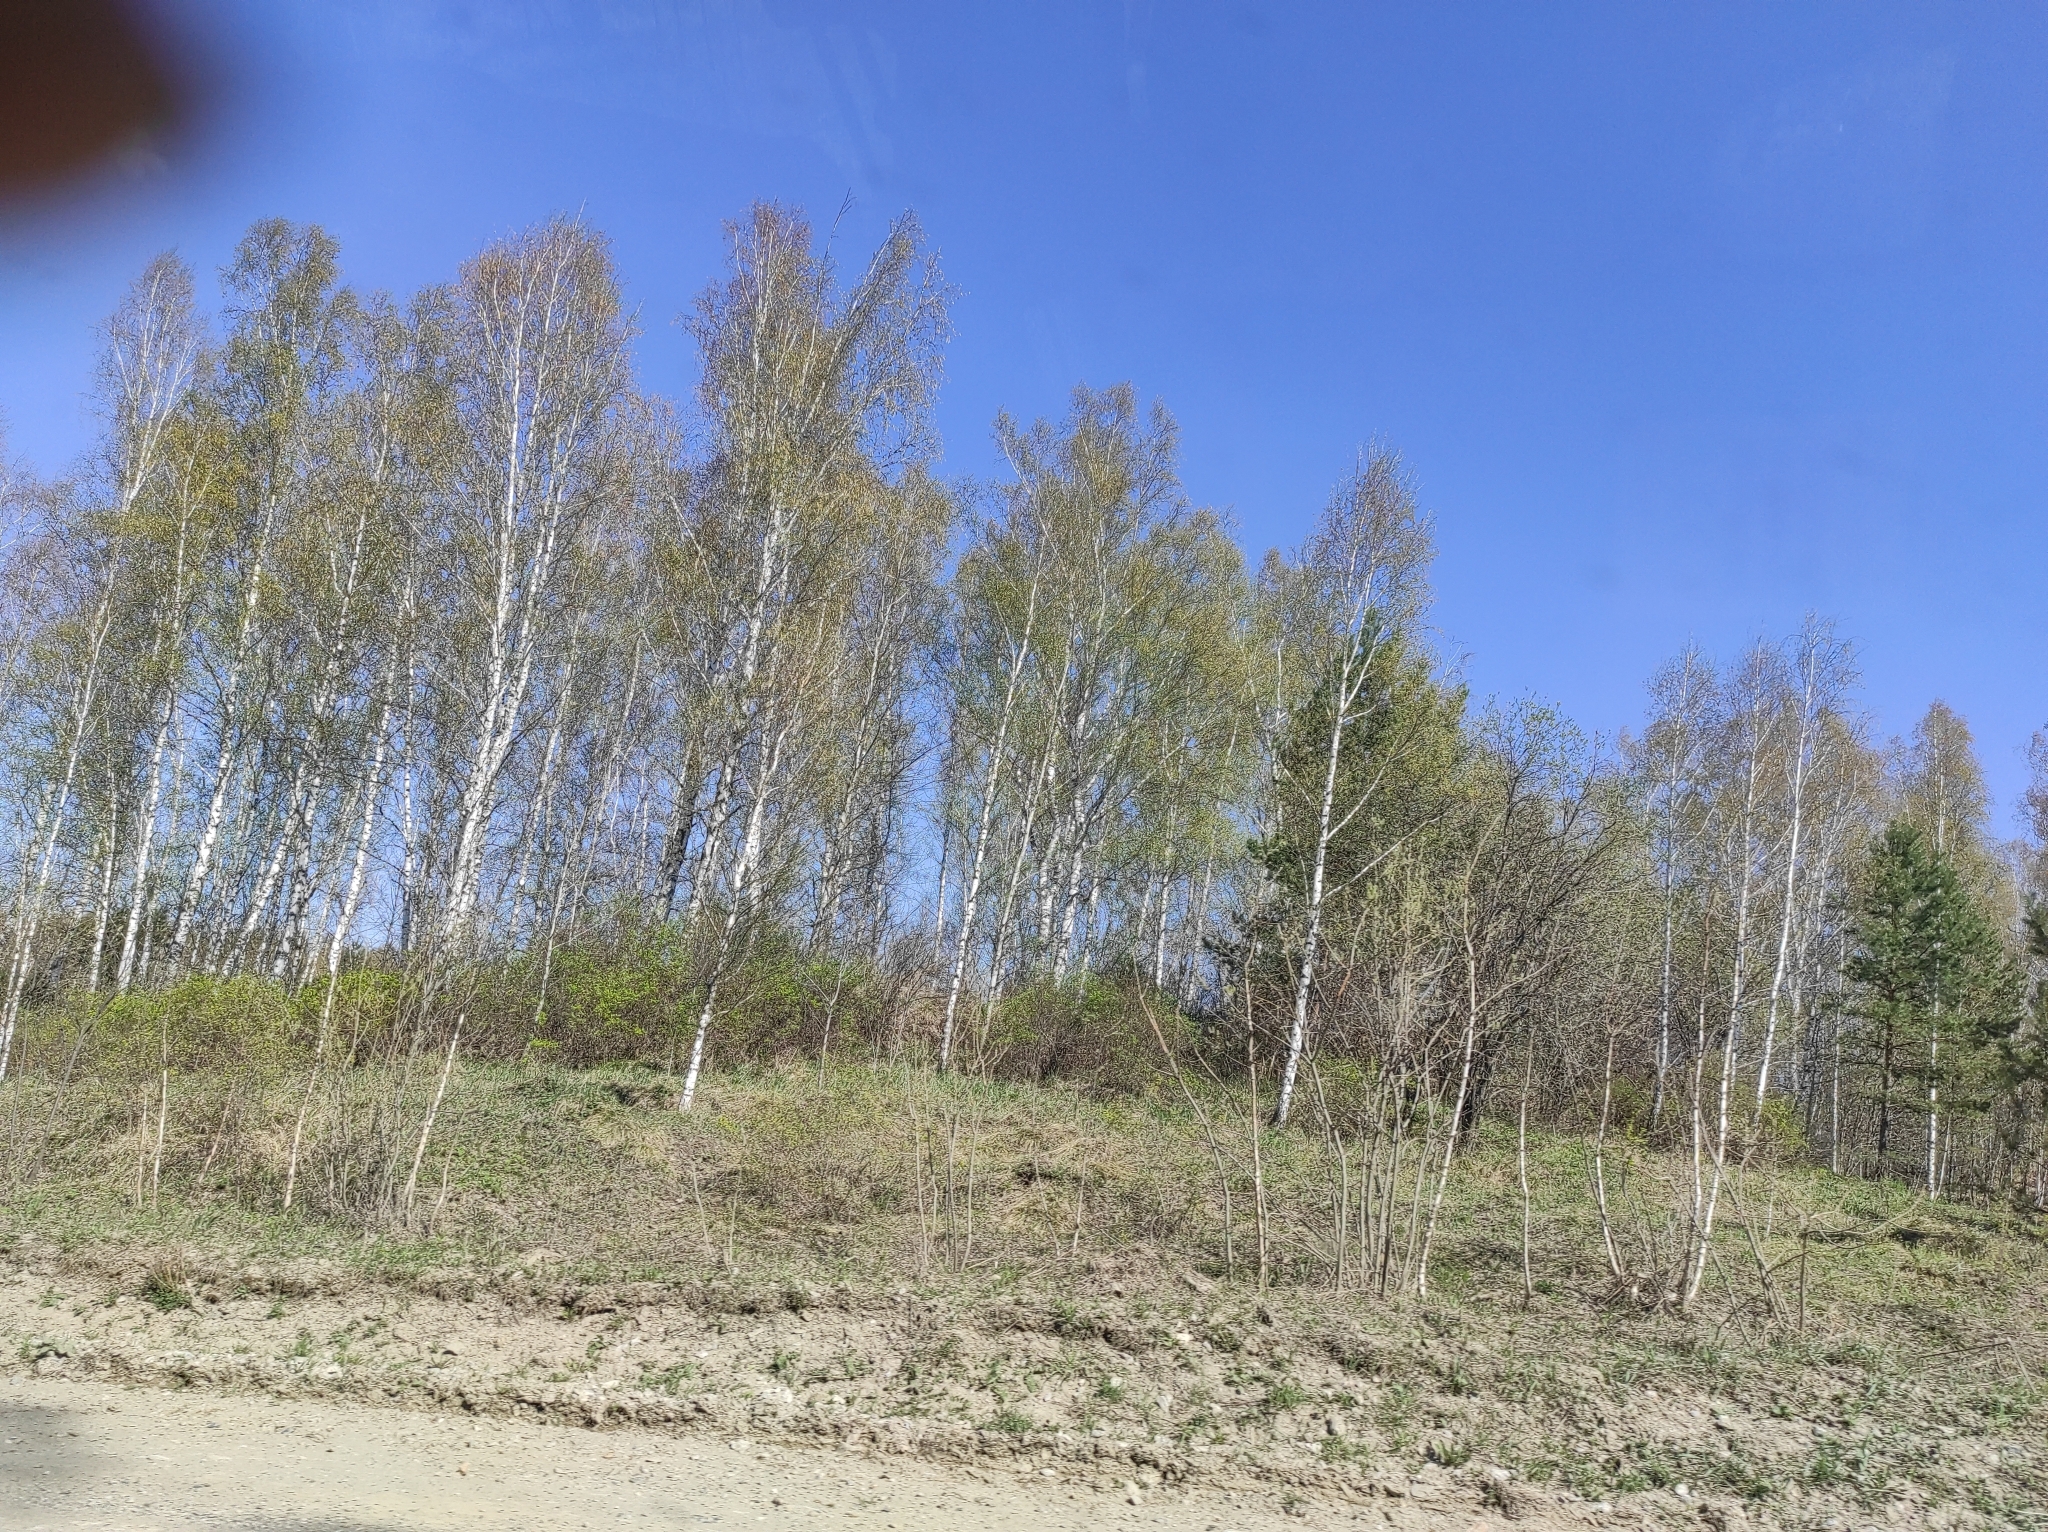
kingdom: Plantae
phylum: Tracheophyta
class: Pinopsida
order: Pinales
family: Pinaceae
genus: Pinus
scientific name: Pinus sylvestris
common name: Scots pine
